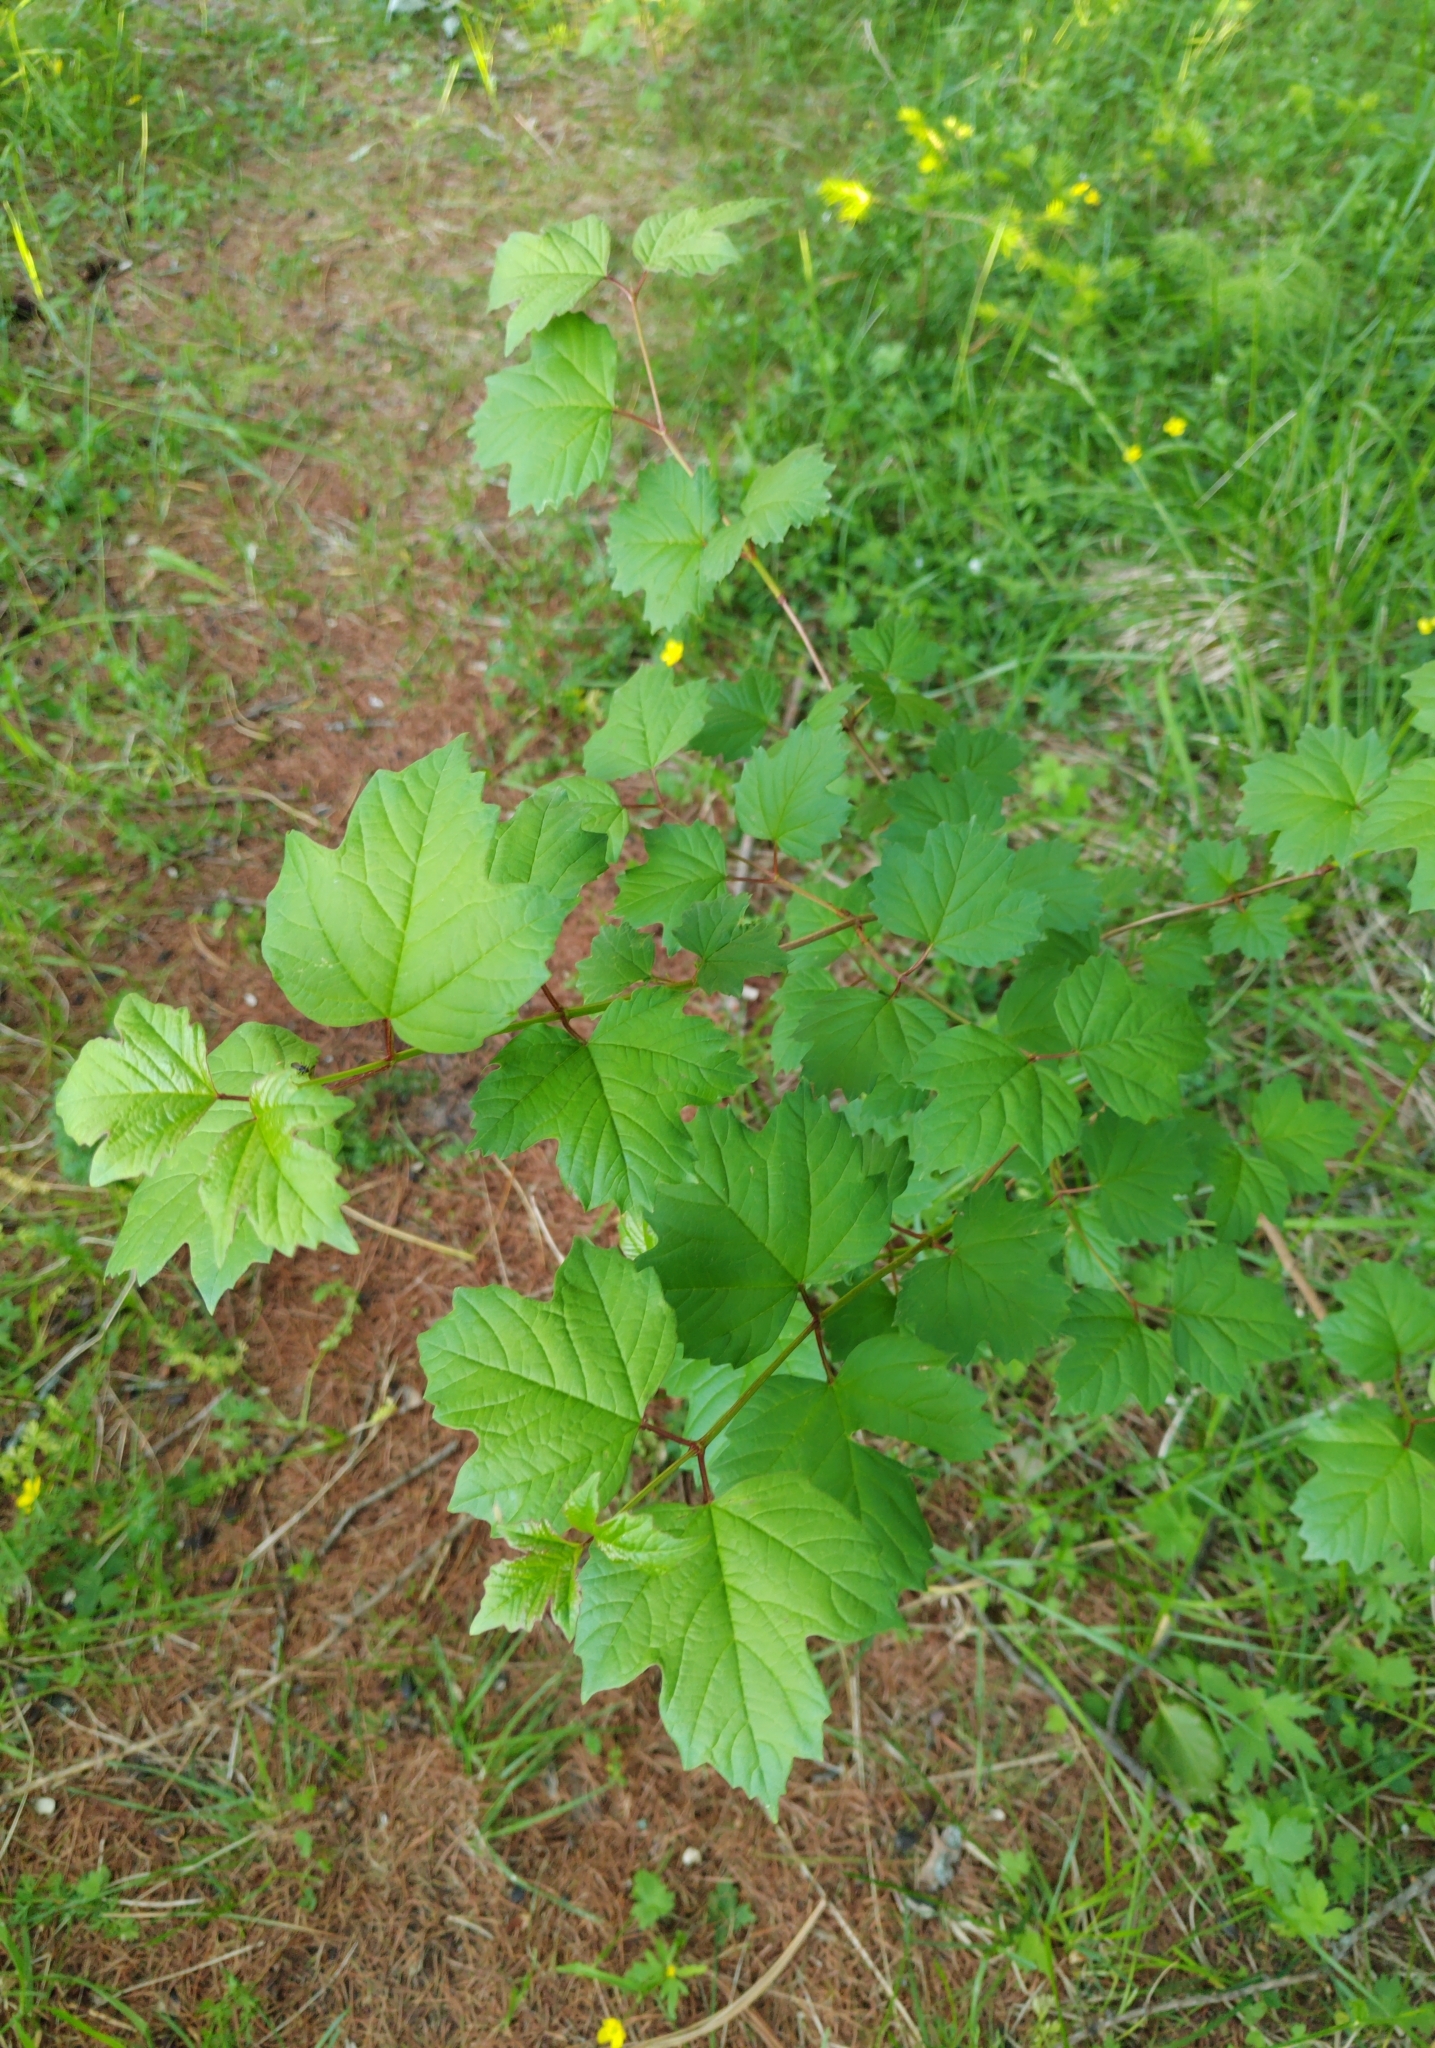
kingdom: Plantae
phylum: Tracheophyta
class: Magnoliopsida
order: Dipsacales
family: Viburnaceae
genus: Viburnum
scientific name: Viburnum opulus
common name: Guelder-rose
